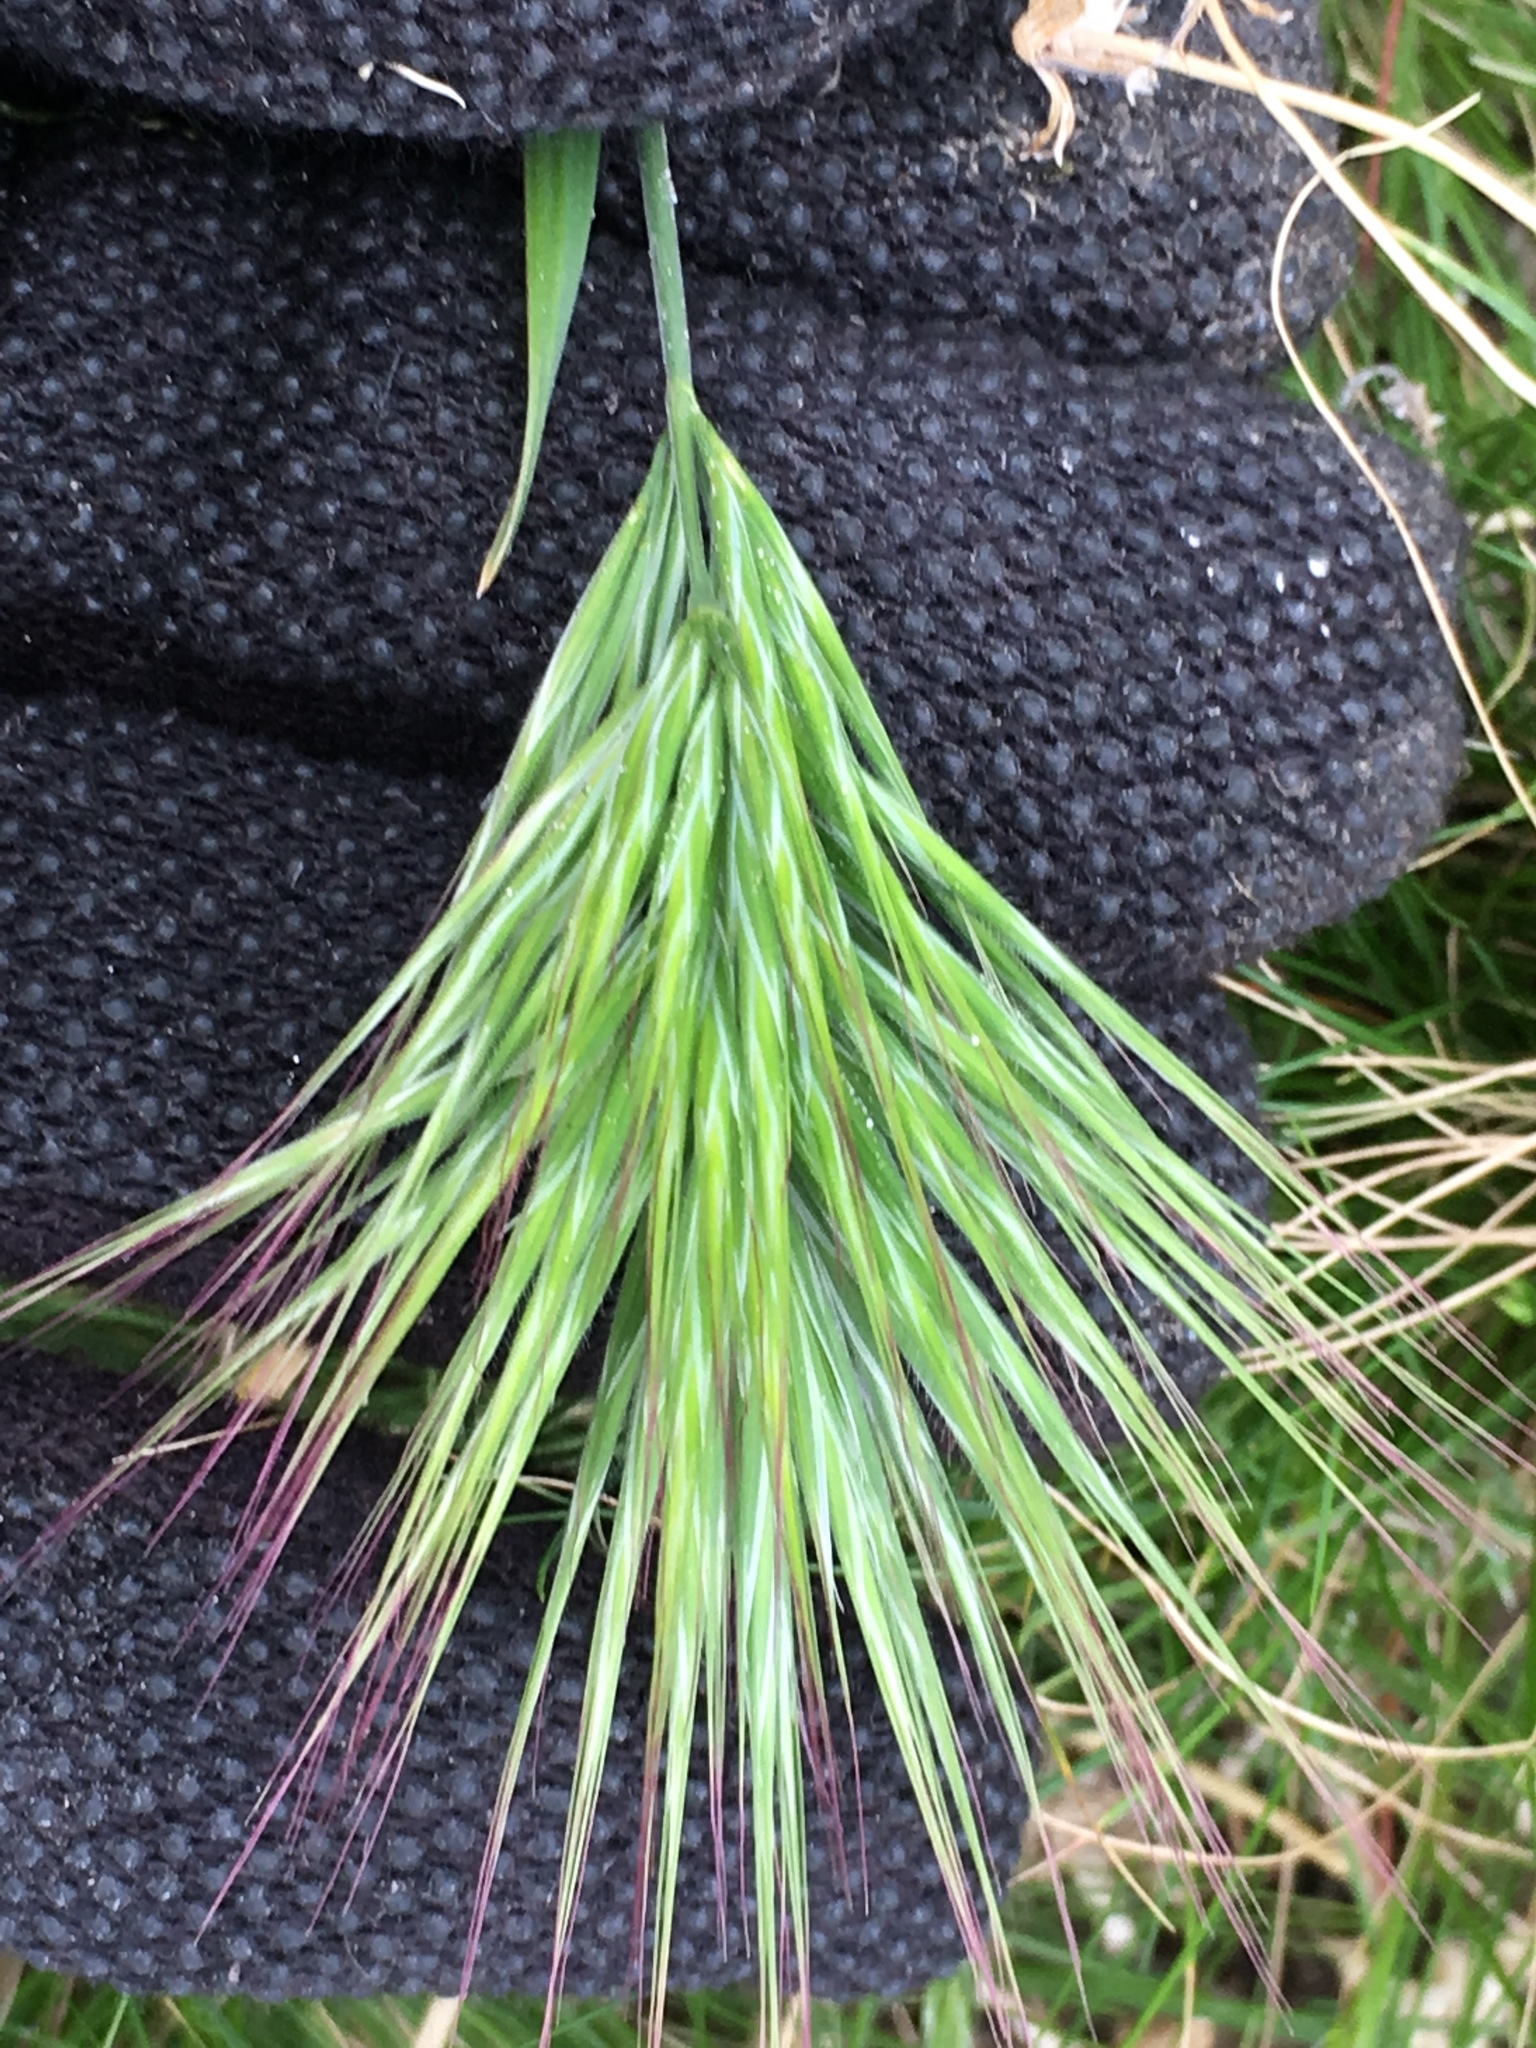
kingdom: Plantae
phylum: Tracheophyta
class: Liliopsida
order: Poales
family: Poaceae
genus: Bromus
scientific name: Bromus rubens
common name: Red brome
